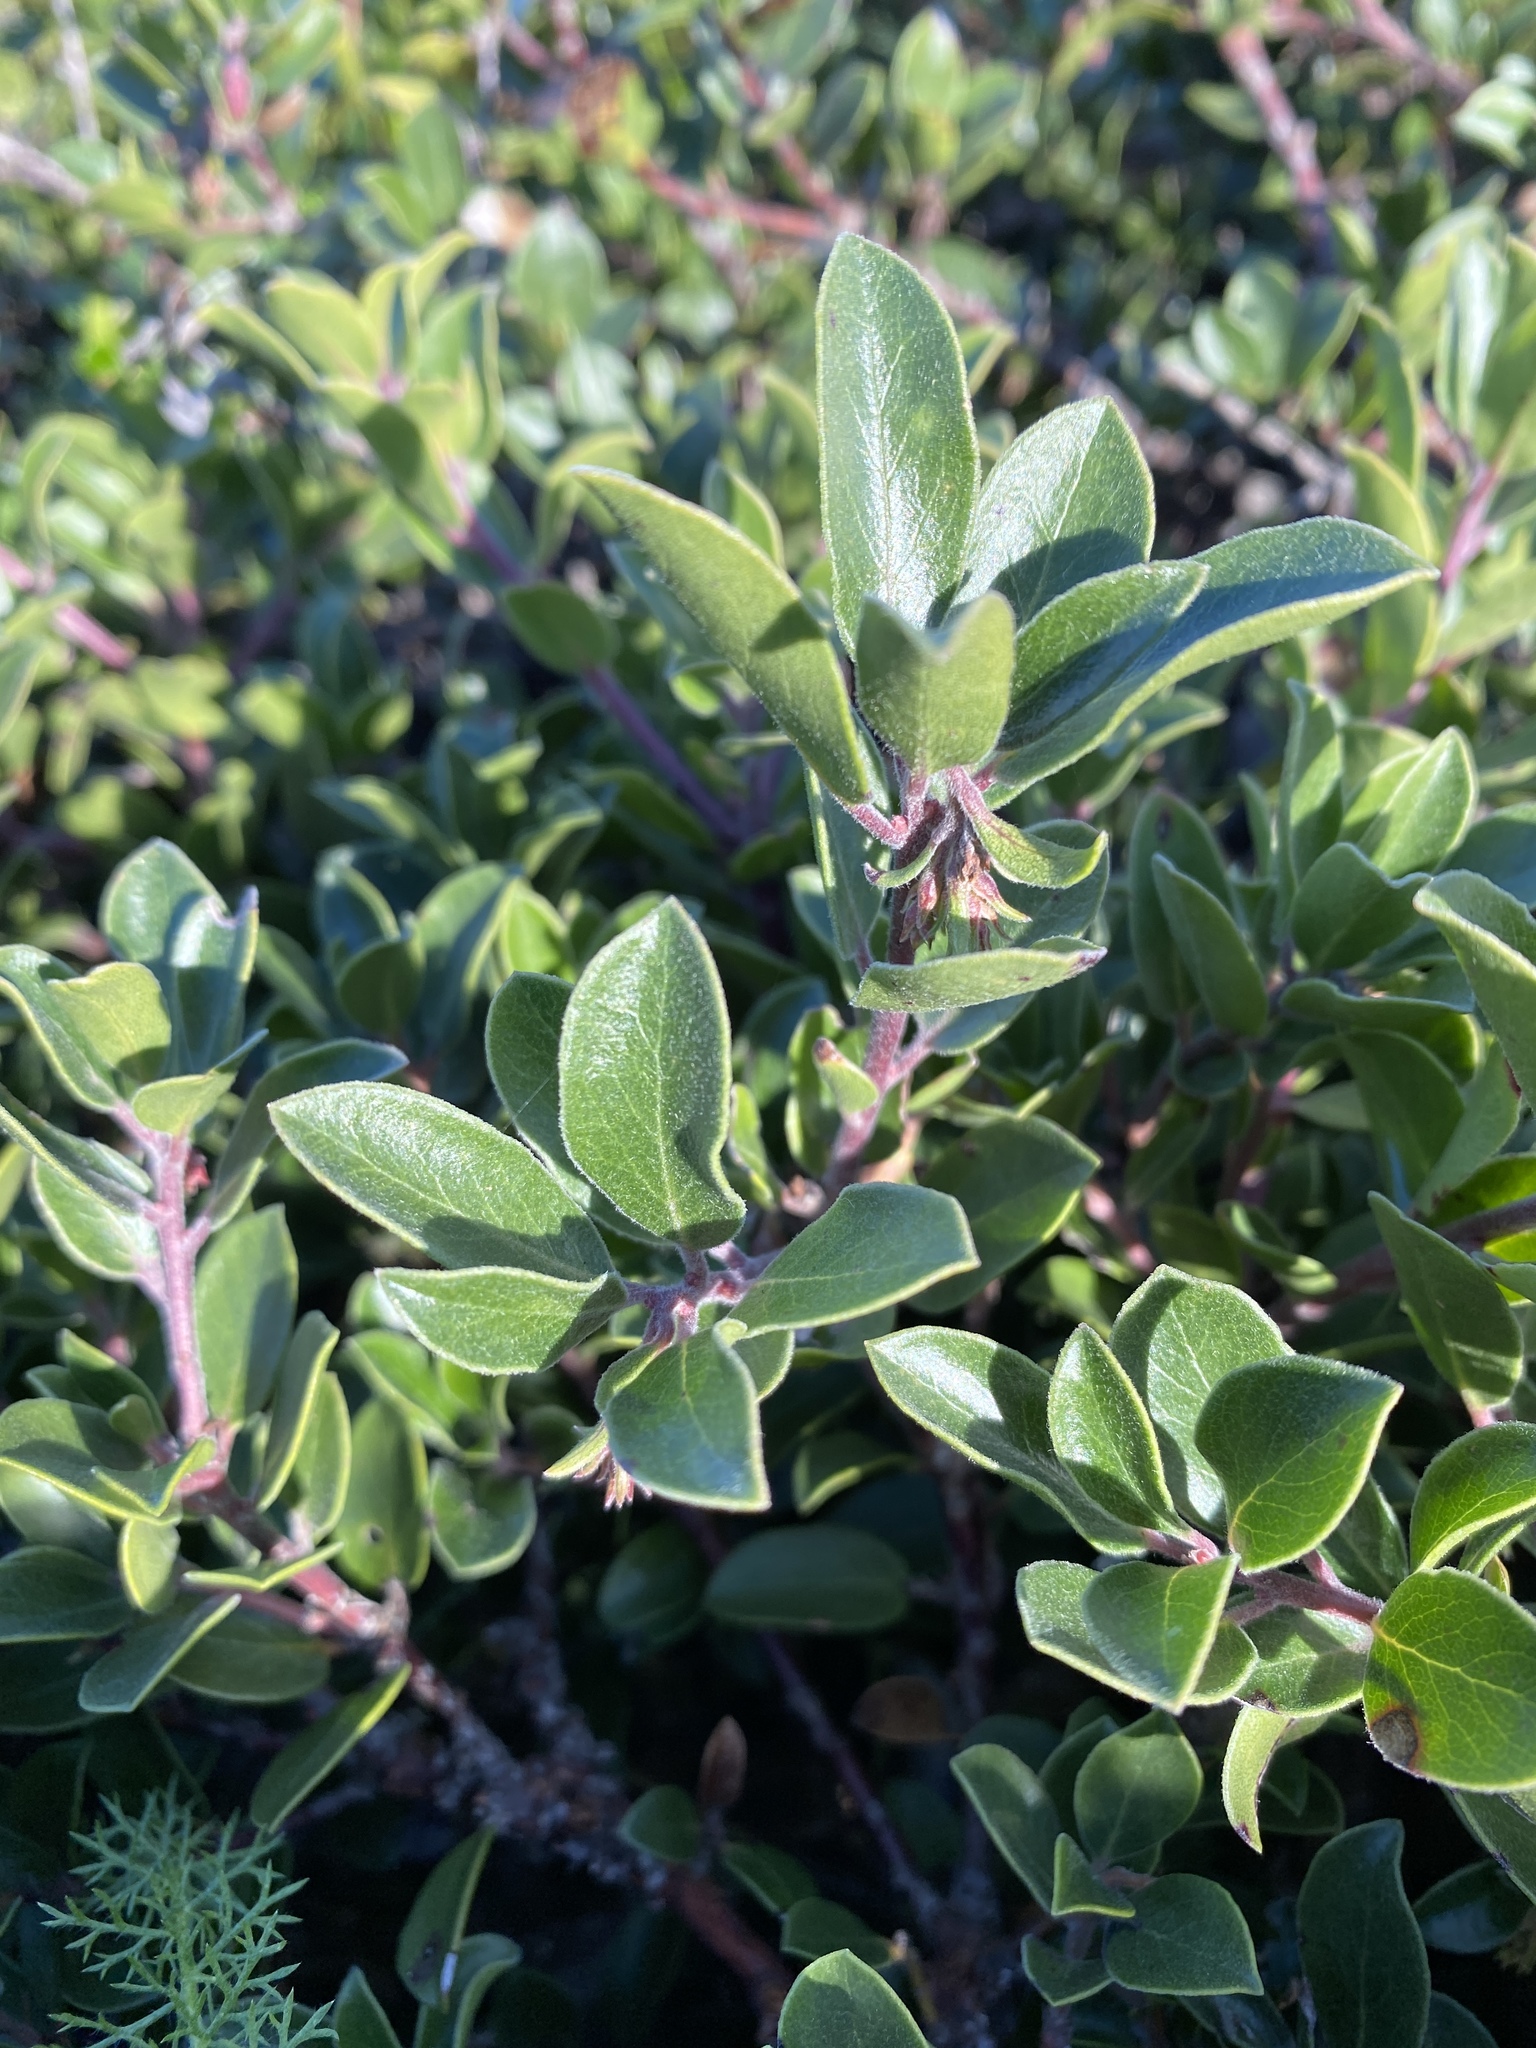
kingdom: Plantae
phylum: Tracheophyta
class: Magnoliopsida
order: Ericales
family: Ericaceae
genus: Arctostaphylos
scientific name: Arctostaphylos uva-ursi
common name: Bearberry
